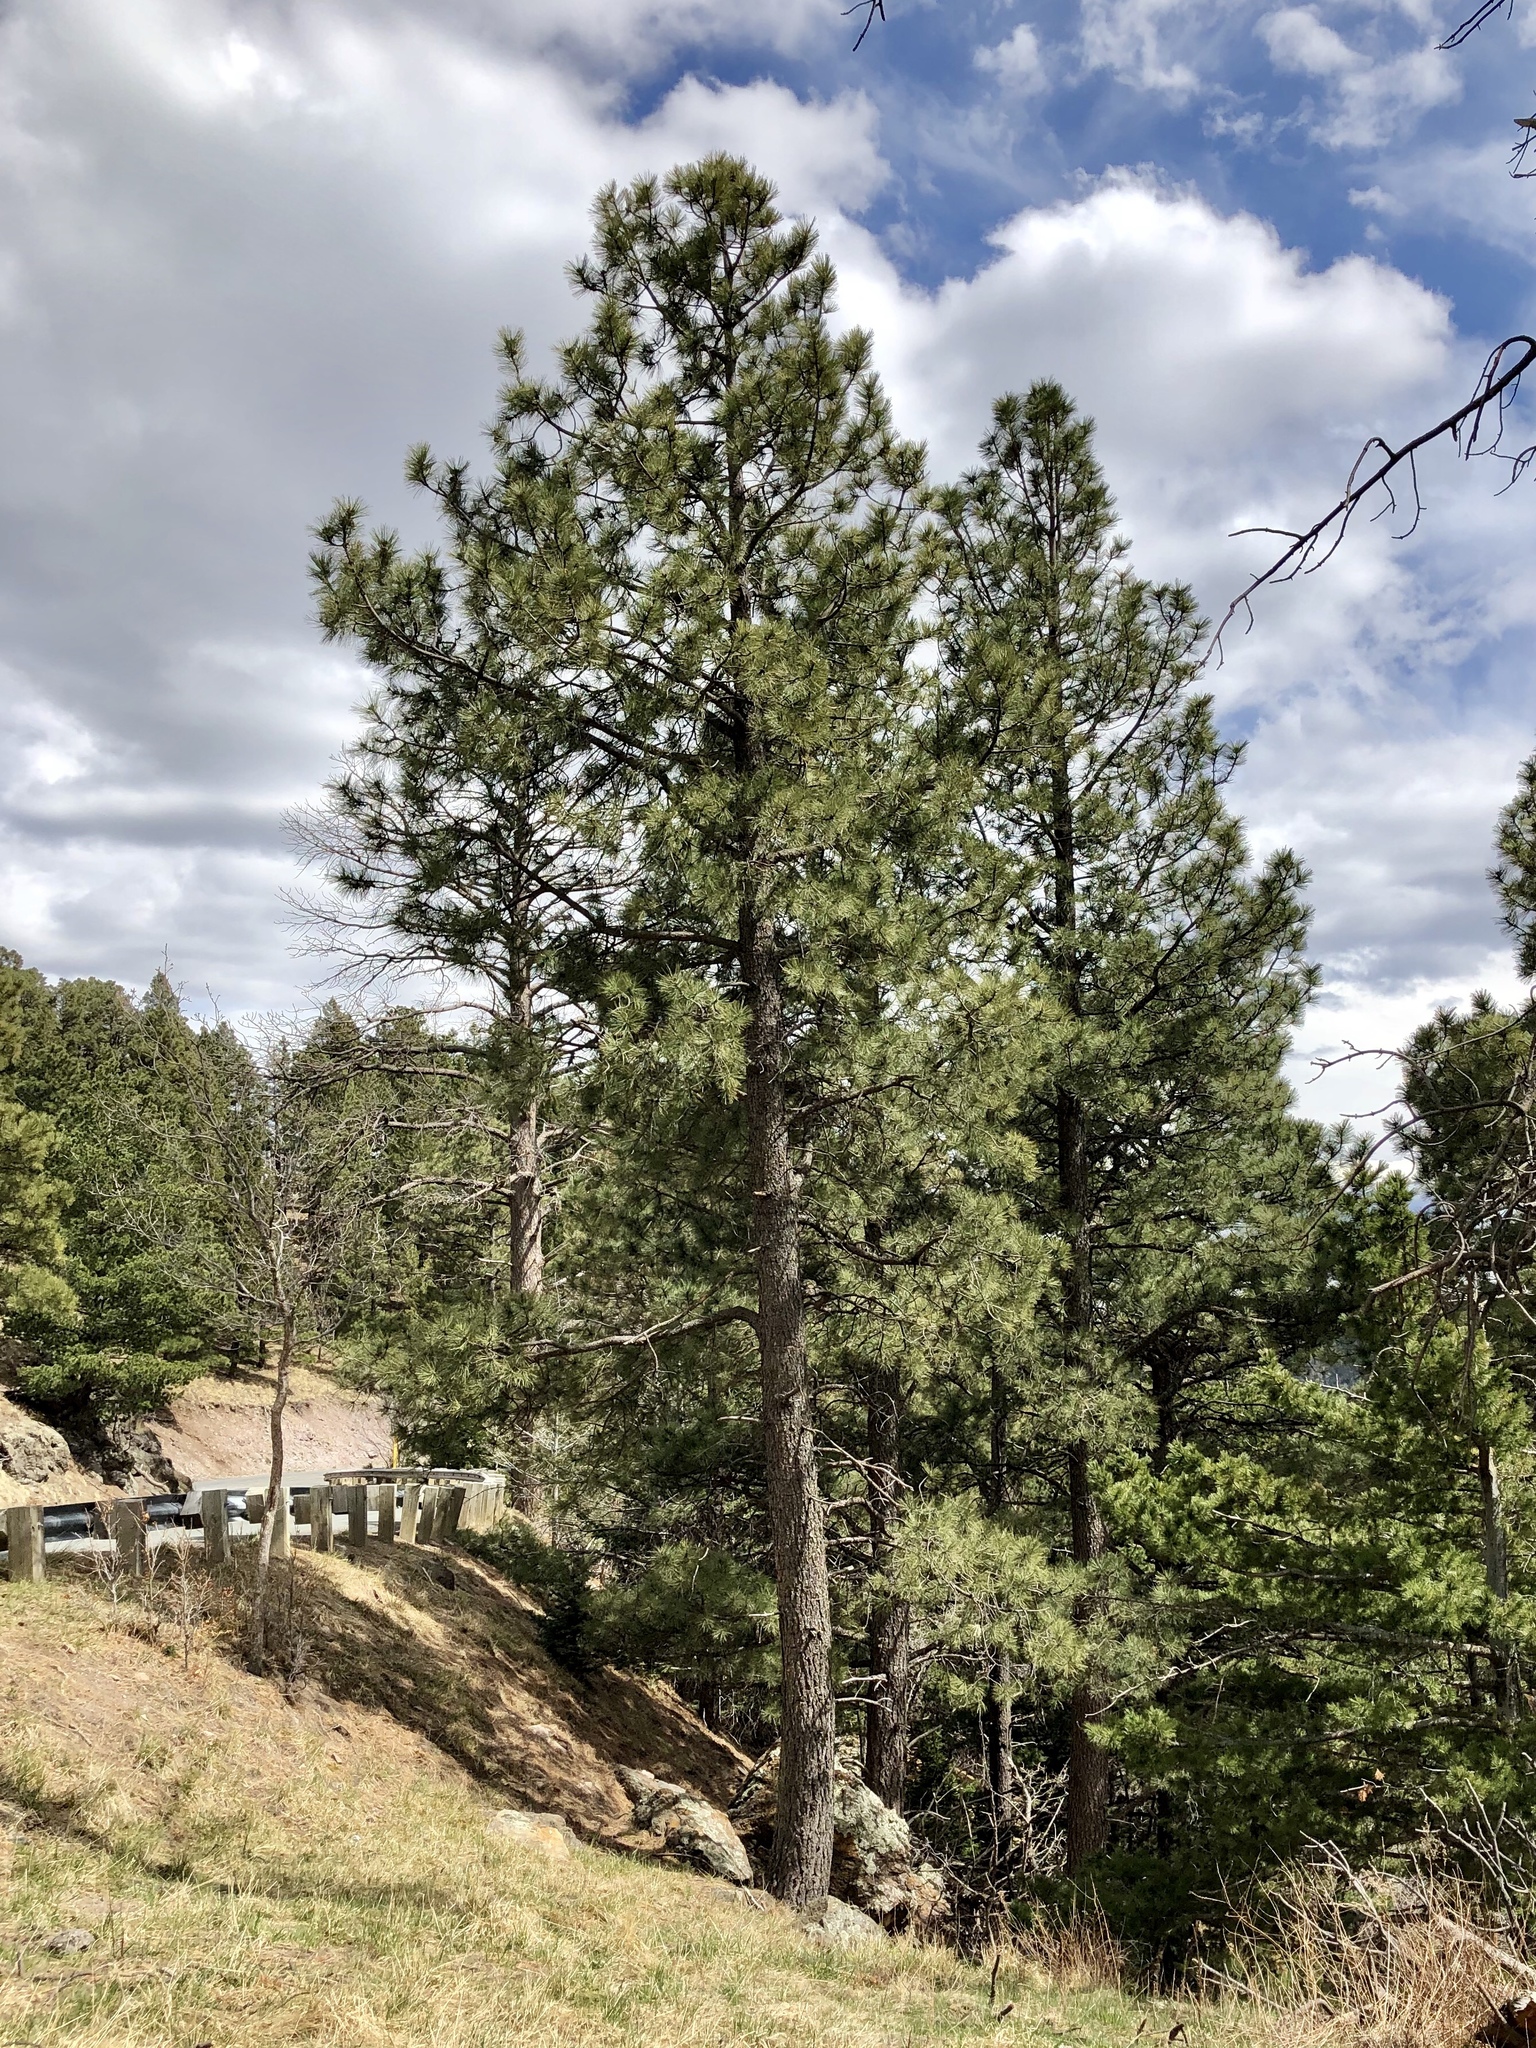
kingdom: Plantae
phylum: Tracheophyta
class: Pinopsida
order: Pinales
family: Pinaceae
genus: Pinus
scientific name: Pinus ponderosa
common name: Western yellow-pine
